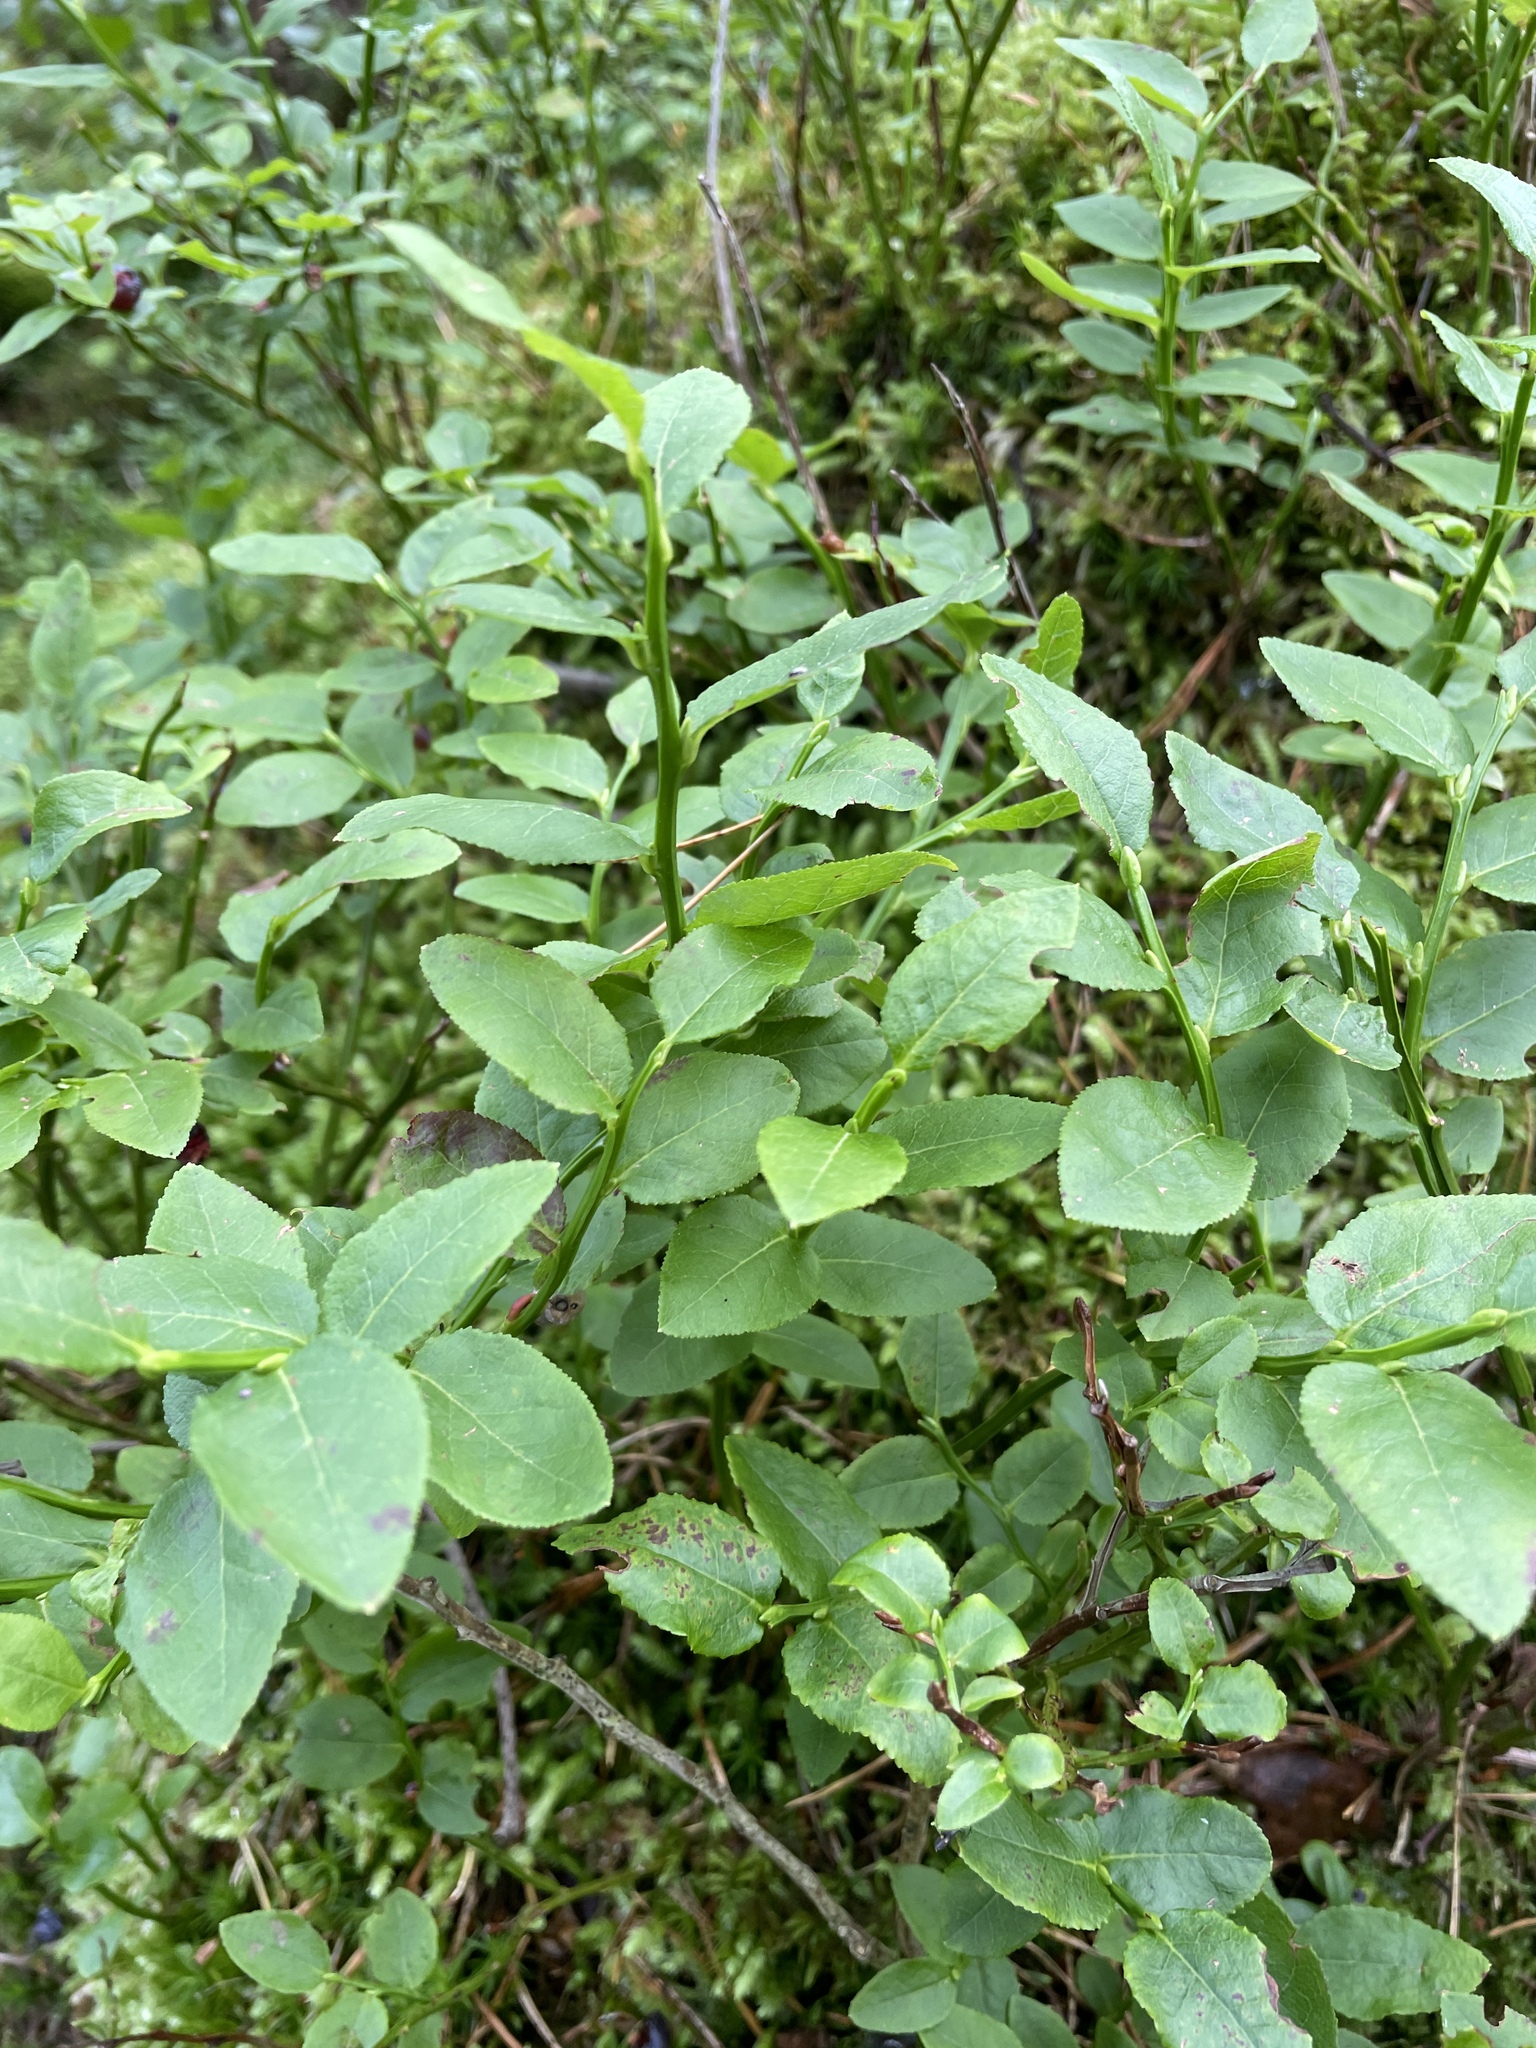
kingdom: Plantae
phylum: Tracheophyta
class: Magnoliopsida
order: Ericales
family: Ericaceae
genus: Vaccinium
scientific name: Vaccinium myrtillus
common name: Bilberry
